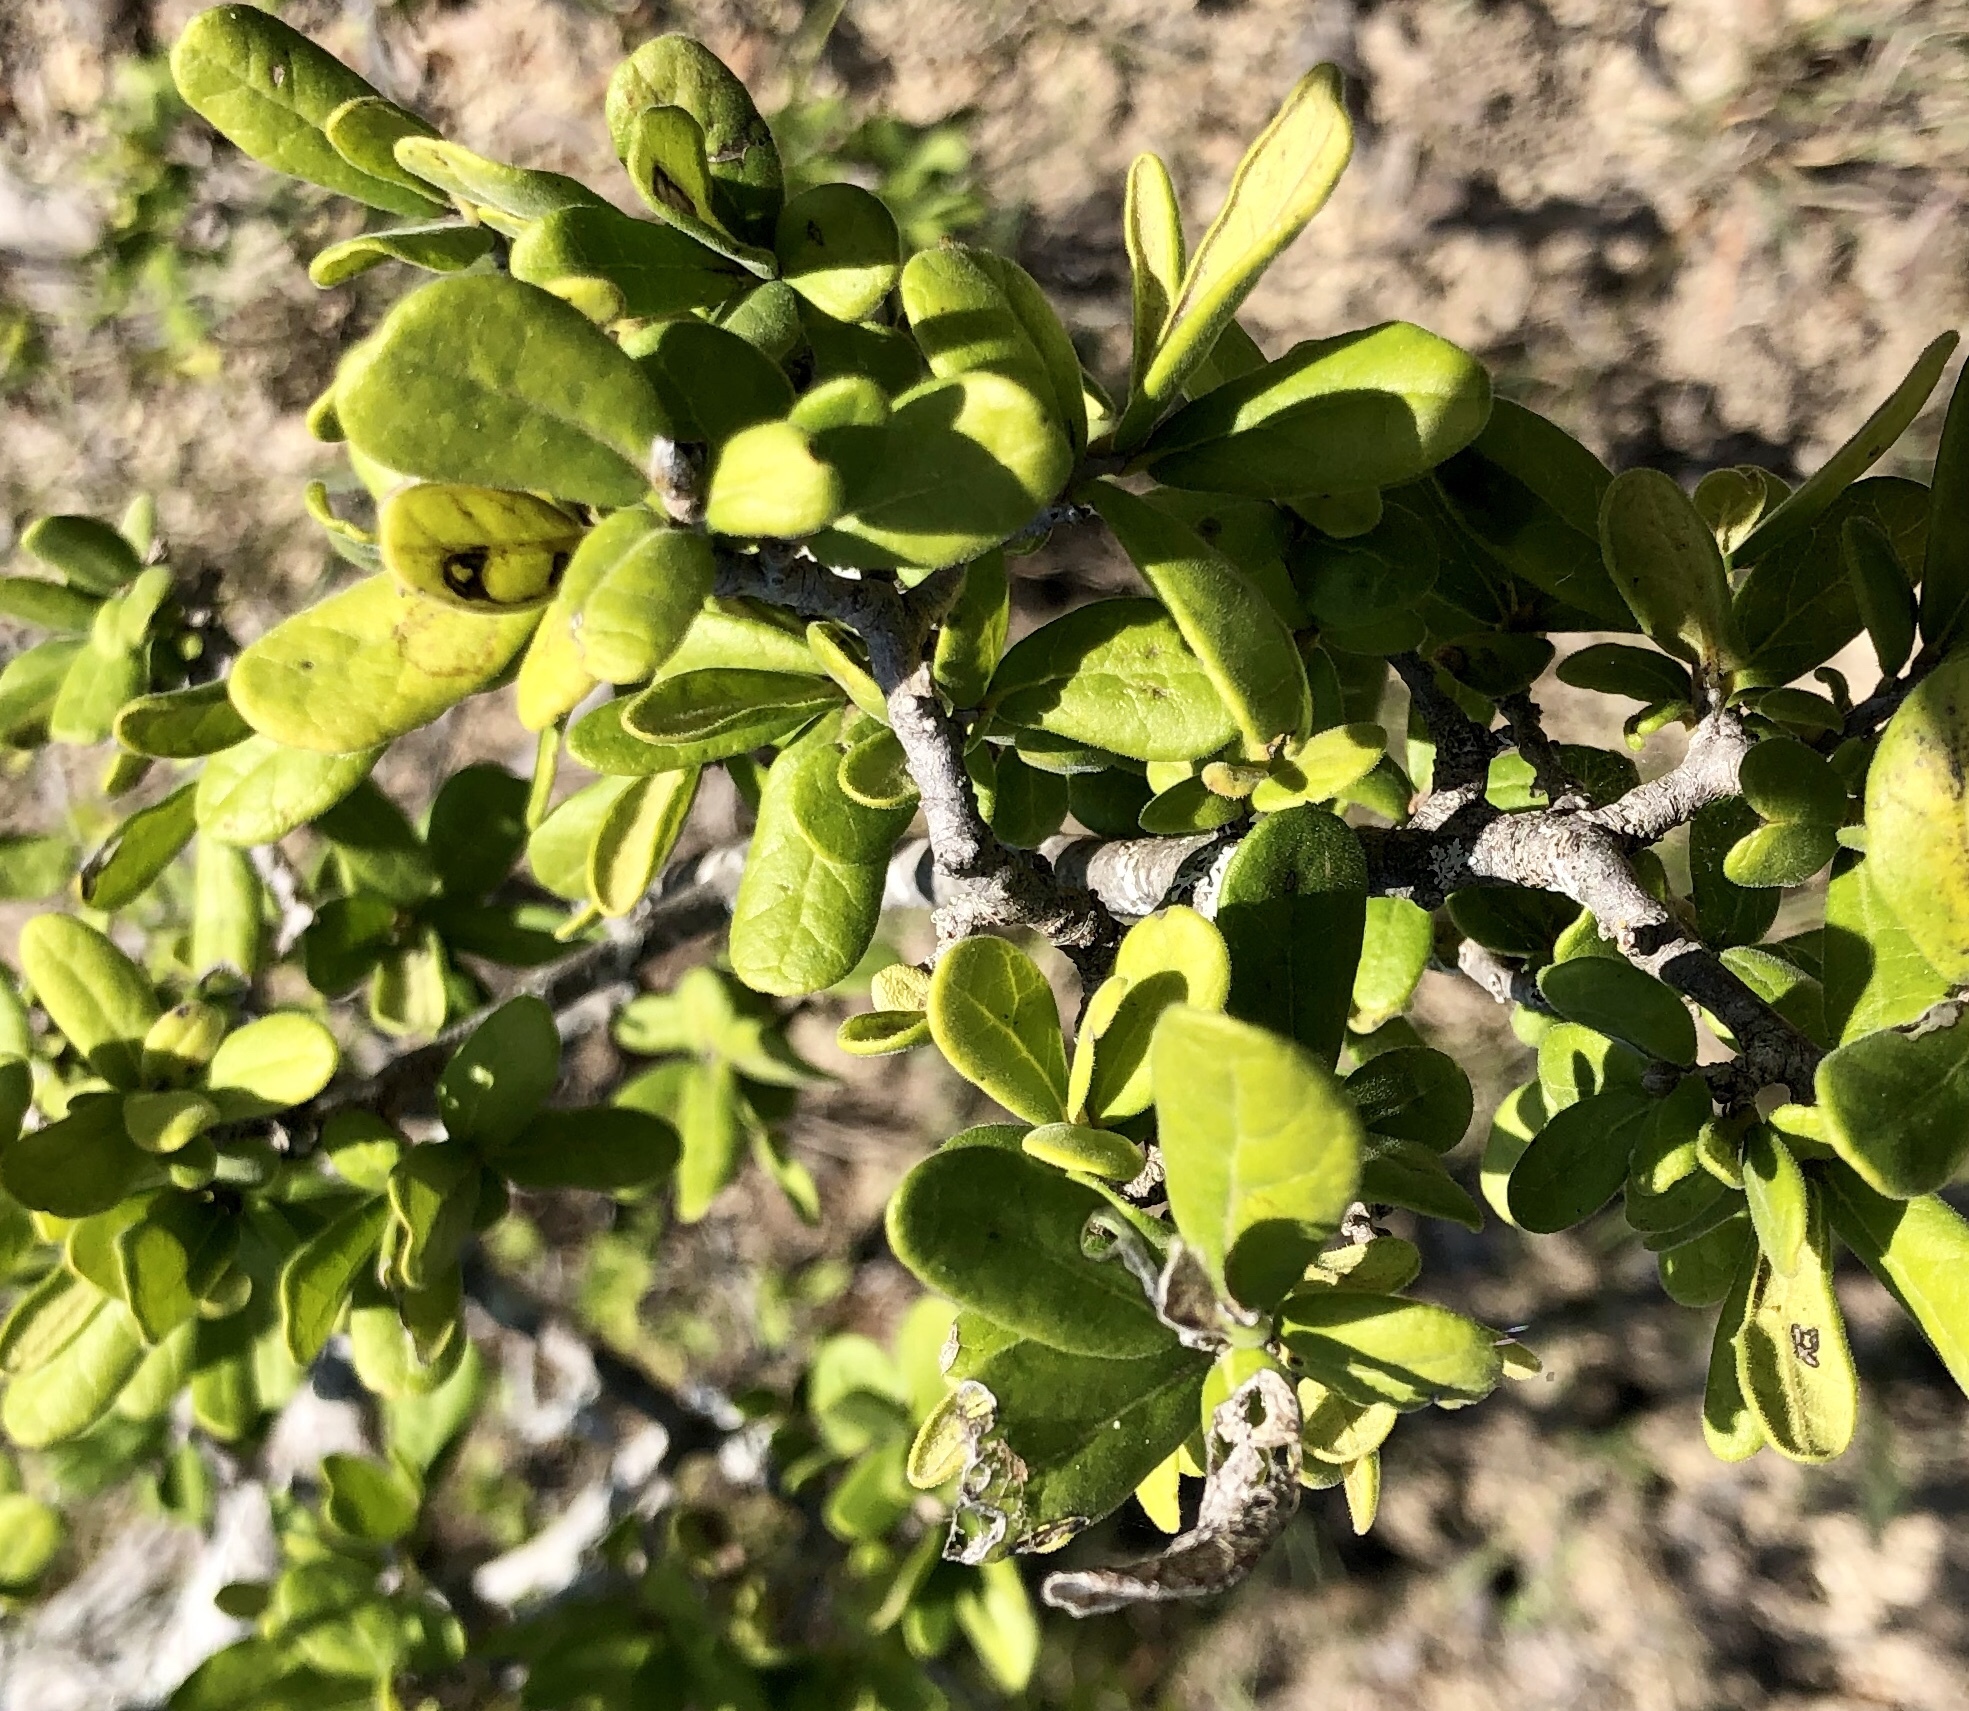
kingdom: Plantae
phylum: Tracheophyta
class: Magnoliopsida
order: Ericales
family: Ebenaceae
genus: Diospyros
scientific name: Diospyros texana
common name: Texas persimmon
